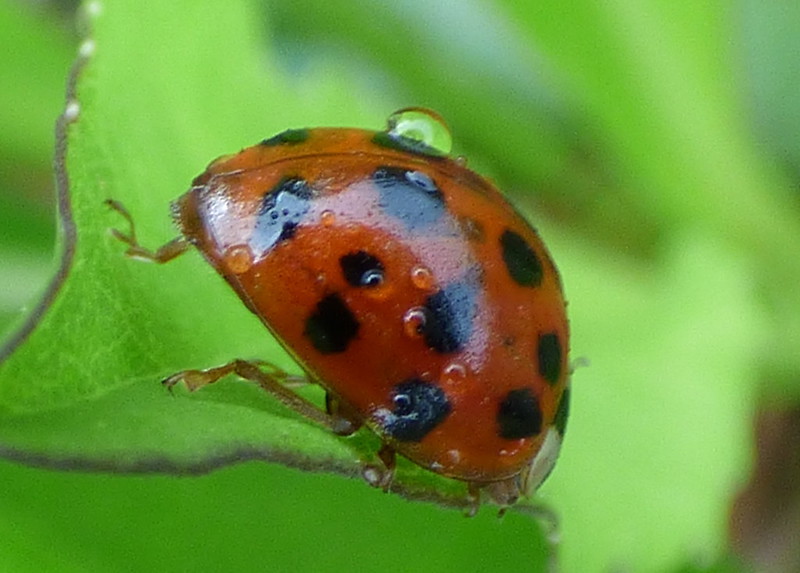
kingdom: Animalia
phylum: Arthropoda
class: Insecta
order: Coleoptera
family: Coccinellidae
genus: Harmonia
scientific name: Harmonia axyridis
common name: Harlequin ladybird
